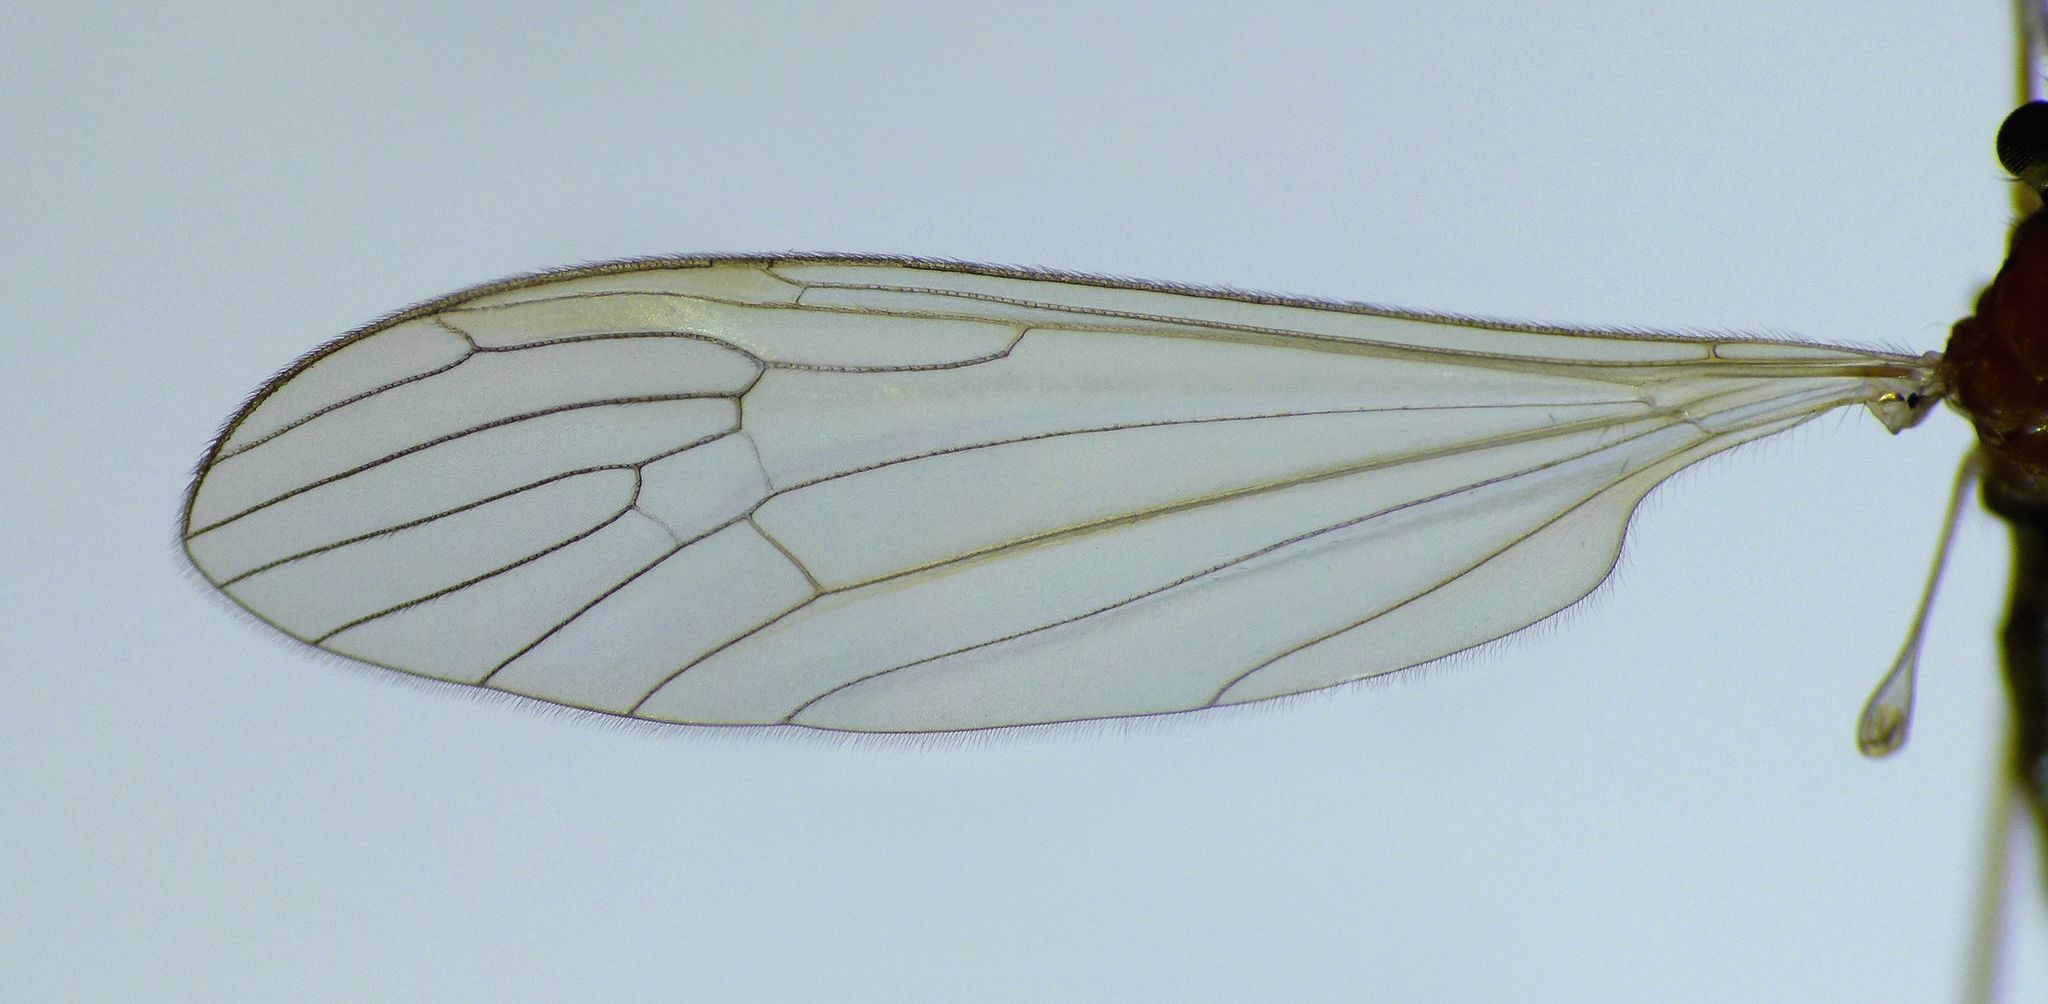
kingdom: Animalia
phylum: Arthropoda
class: Insecta
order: Diptera
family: Limoniidae
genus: Atarba
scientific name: Atarba eluta
